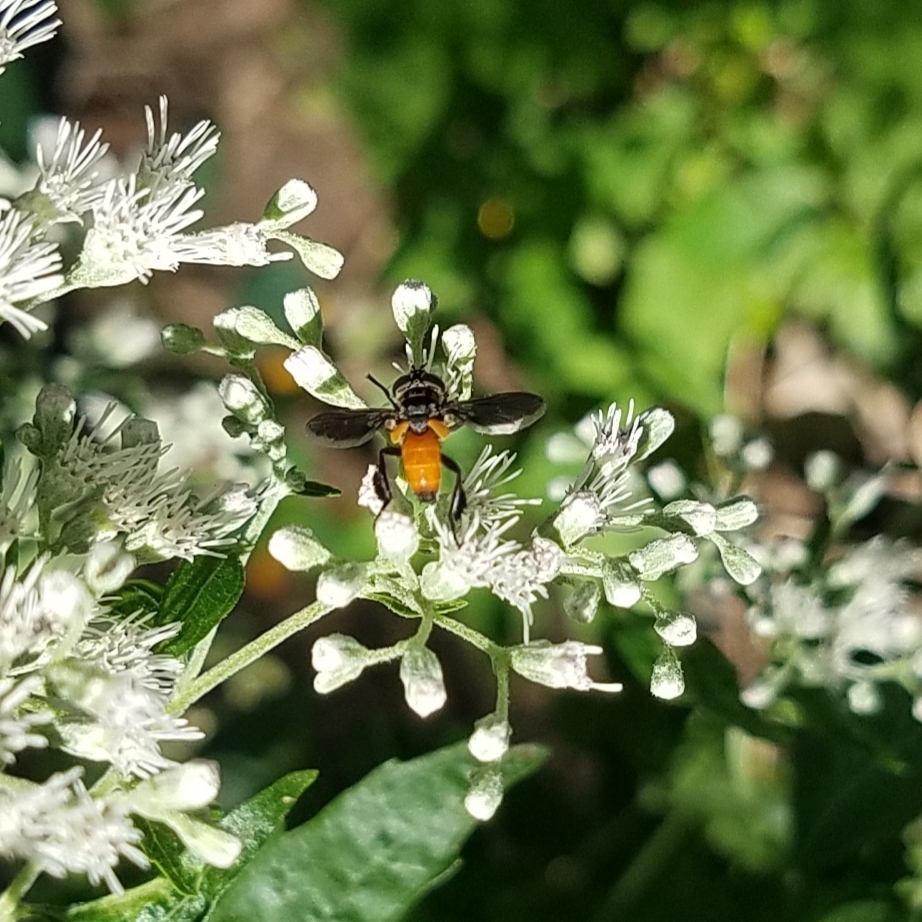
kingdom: Animalia
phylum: Arthropoda
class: Insecta
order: Diptera
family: Tachinidae
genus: Trichopoda
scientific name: Trichopoda pennipes
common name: Tachinid fly
